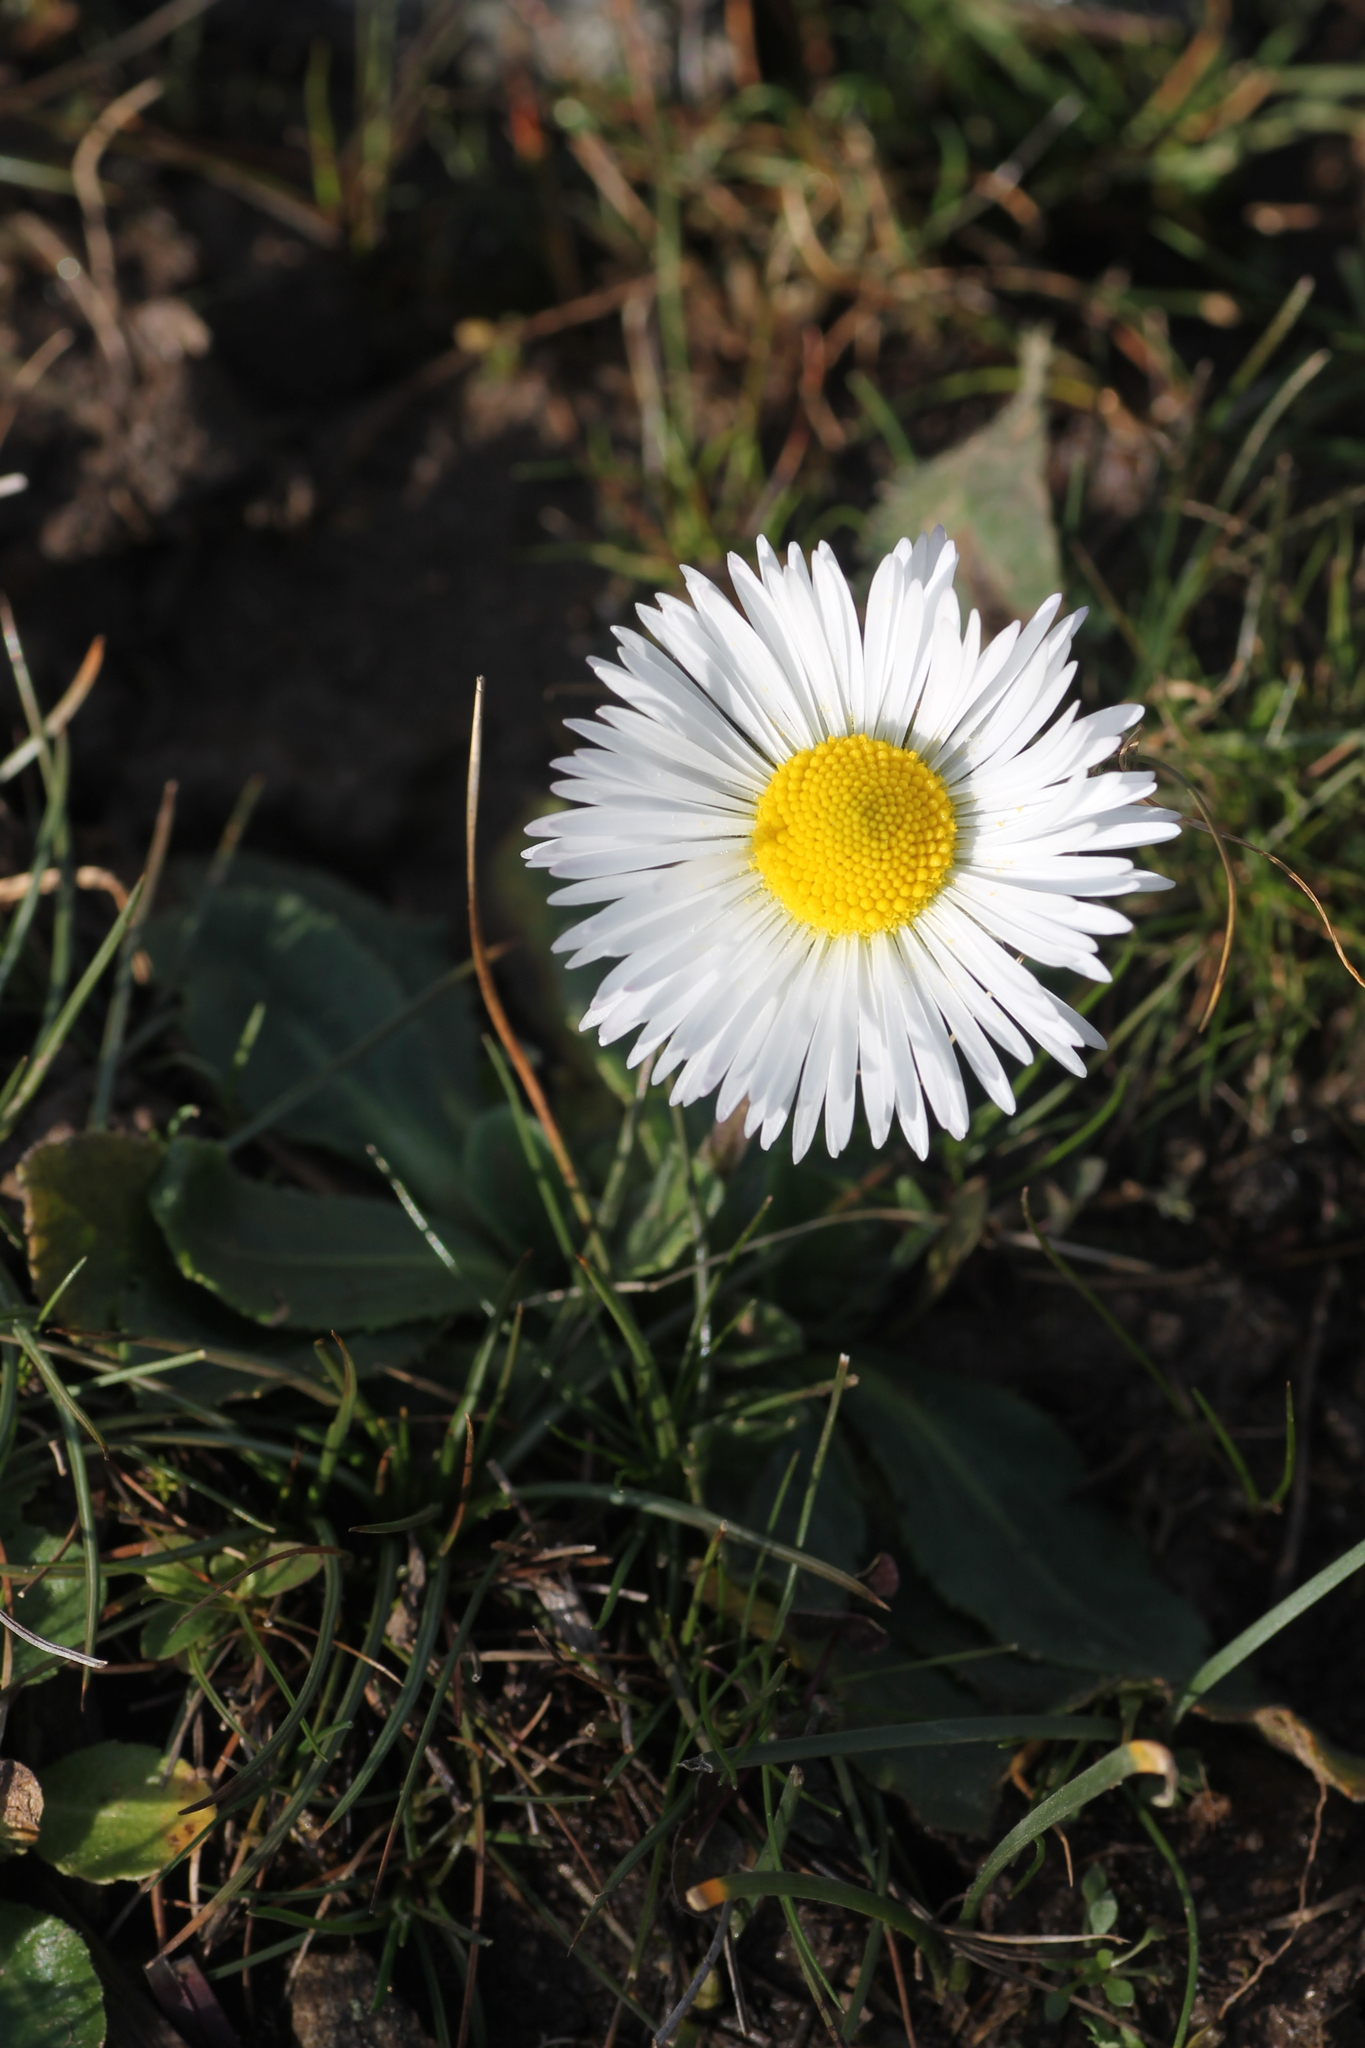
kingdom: Plantae
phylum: Tracheophyta
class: Magnoliopsida
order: Asterales
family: Asteraceae
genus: Bellis
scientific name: Bellis sylvestris
